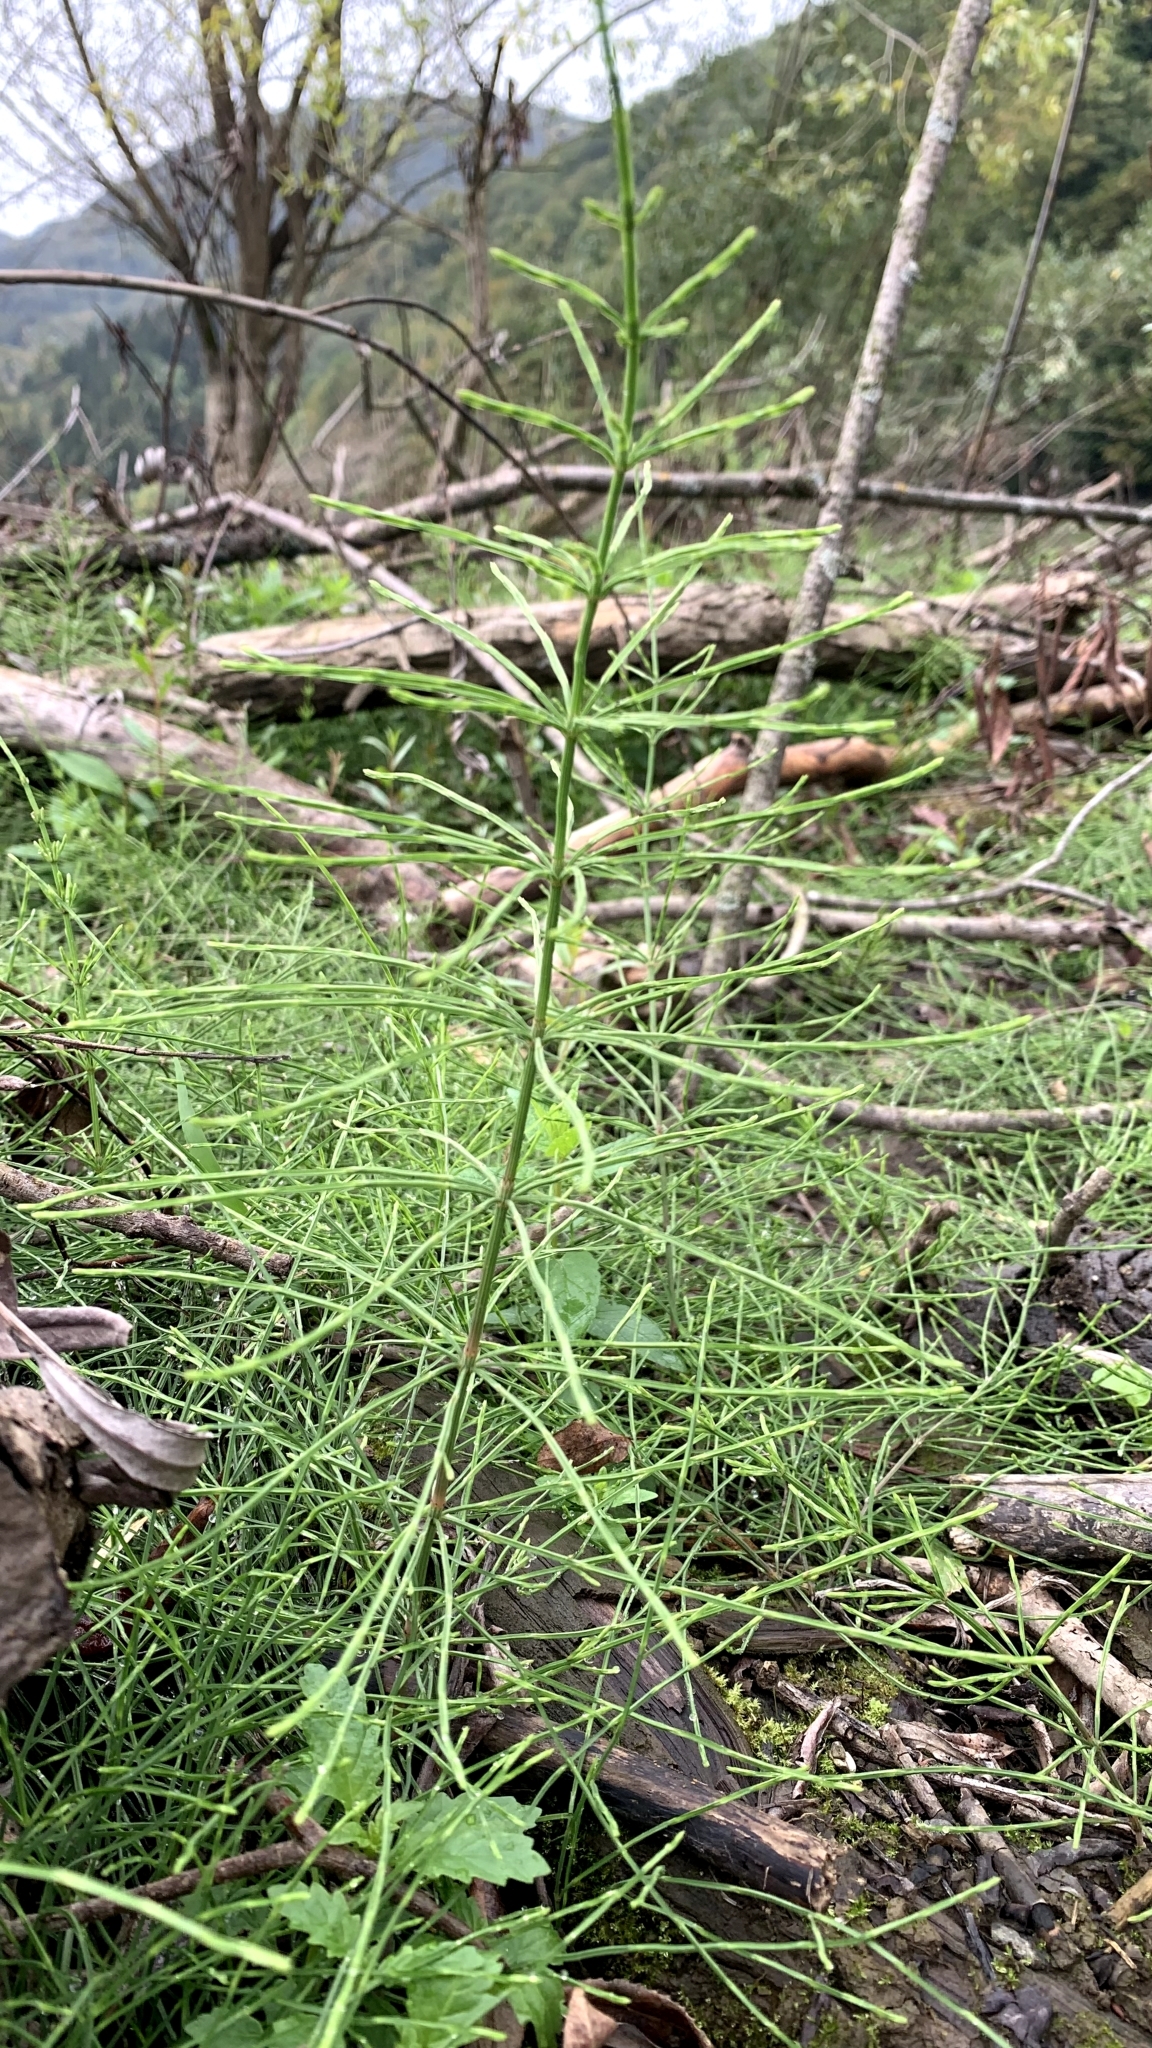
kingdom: Plantae
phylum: Tracheophyta
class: Polypodiopsida
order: Equisetales
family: Equisetaceae
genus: Equisetum
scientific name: Equisetum arvense
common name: Field horsetail
